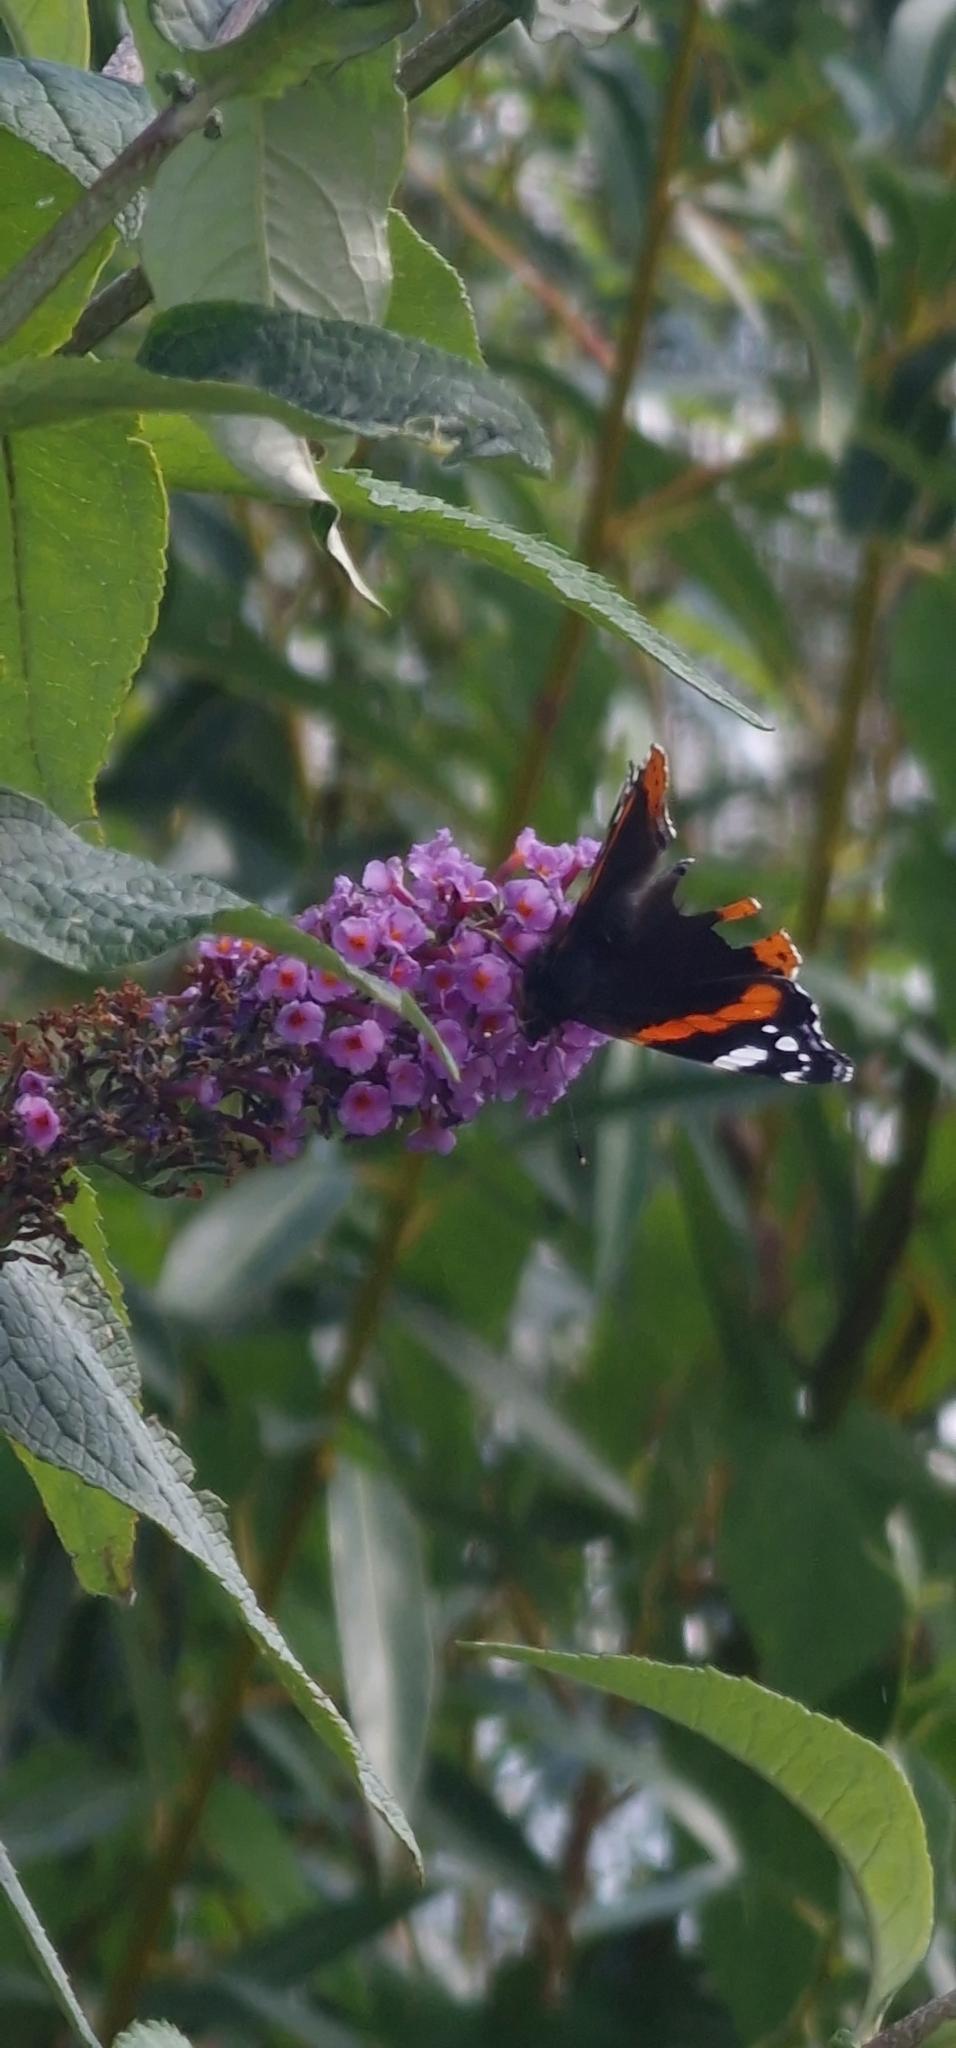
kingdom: Animalia
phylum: Arthropoda
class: Insecta
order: Lepidoptera
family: Nymphalidae
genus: Vanessa
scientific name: Vanessa atalanta
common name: Red admiral
